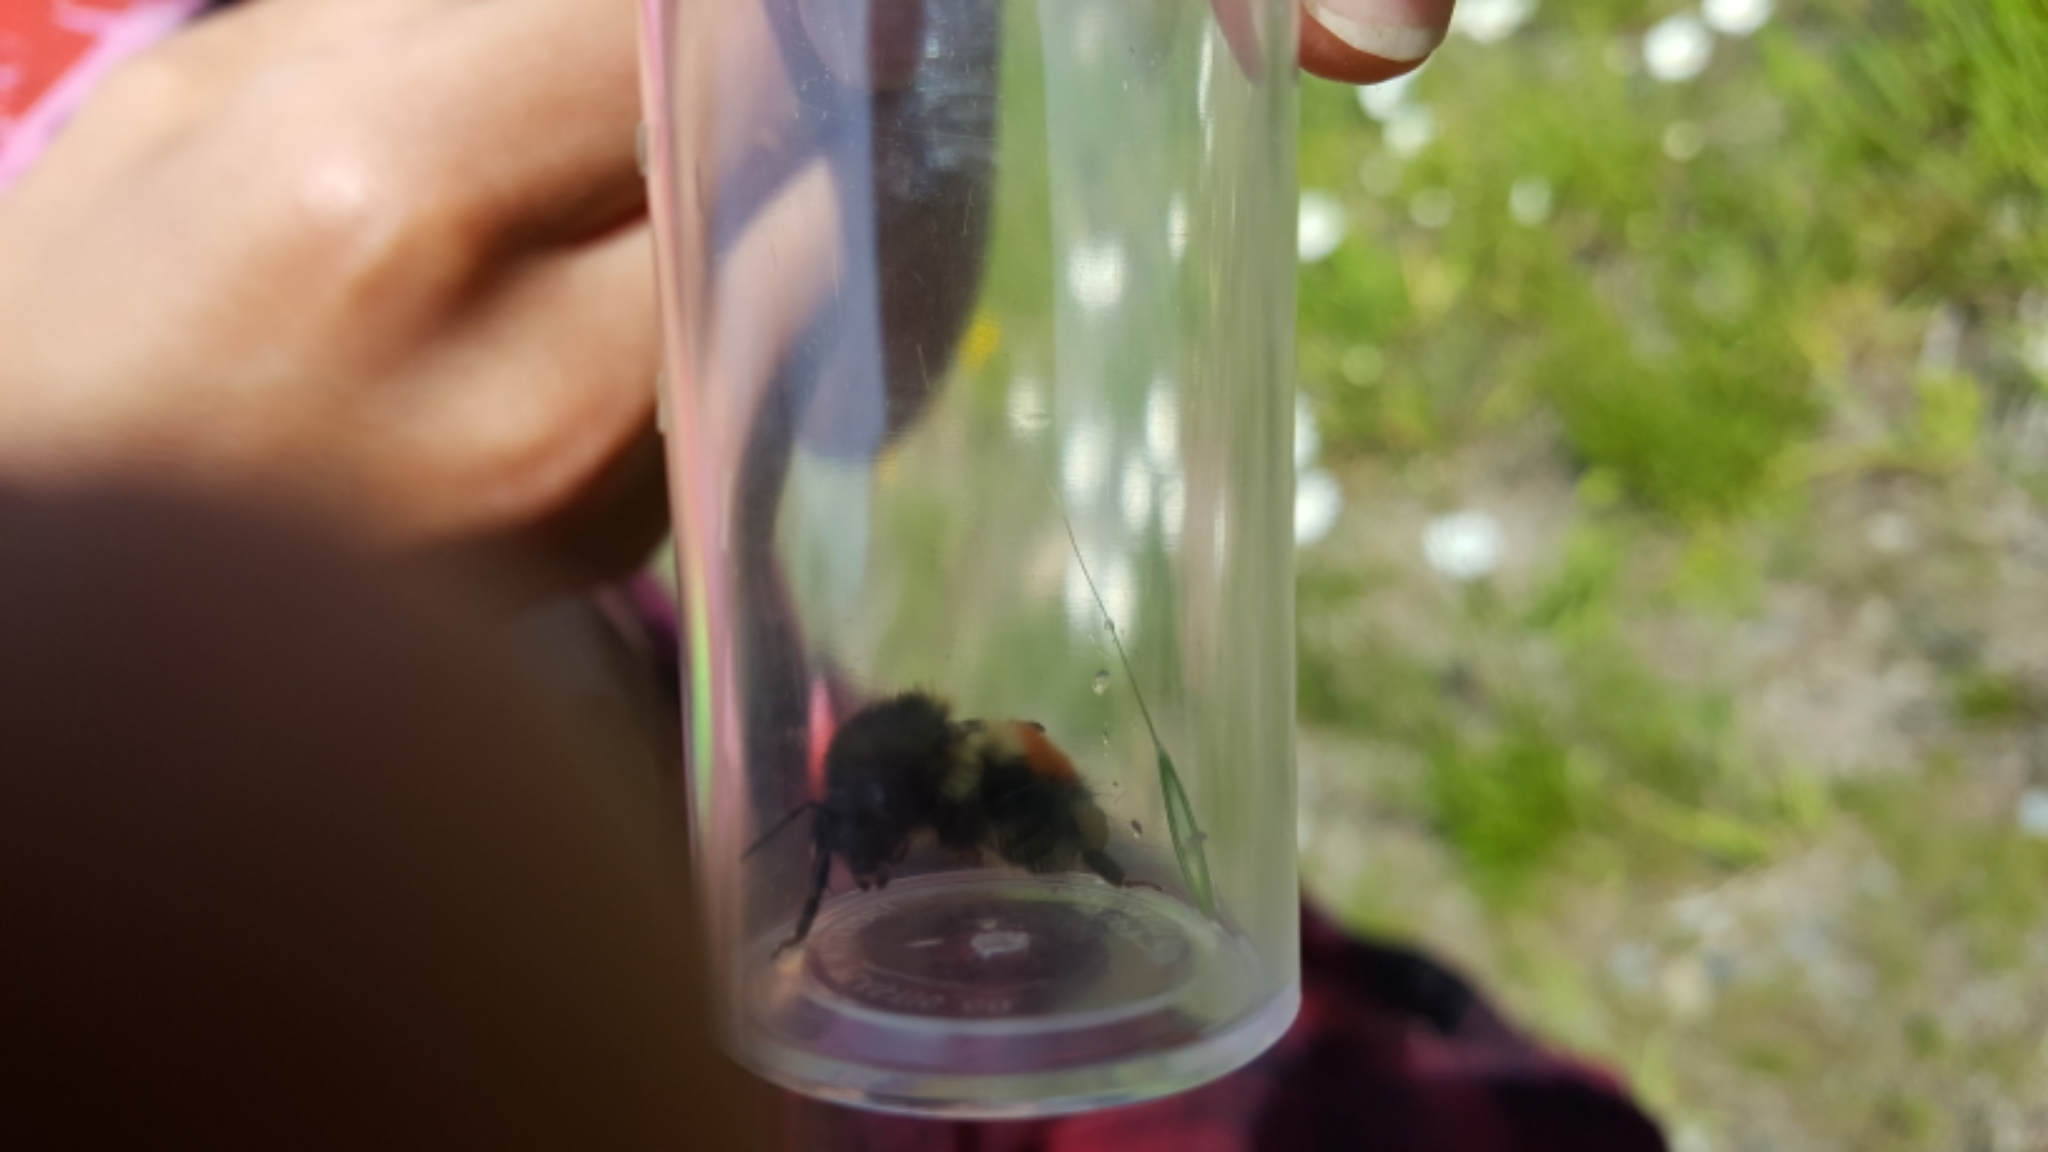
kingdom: Animalia
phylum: Arthropoda
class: Insecta
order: Hymenoptera
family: Apidae
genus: Bombus
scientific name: Bombus melanopygus
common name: Black tail bumble bee
